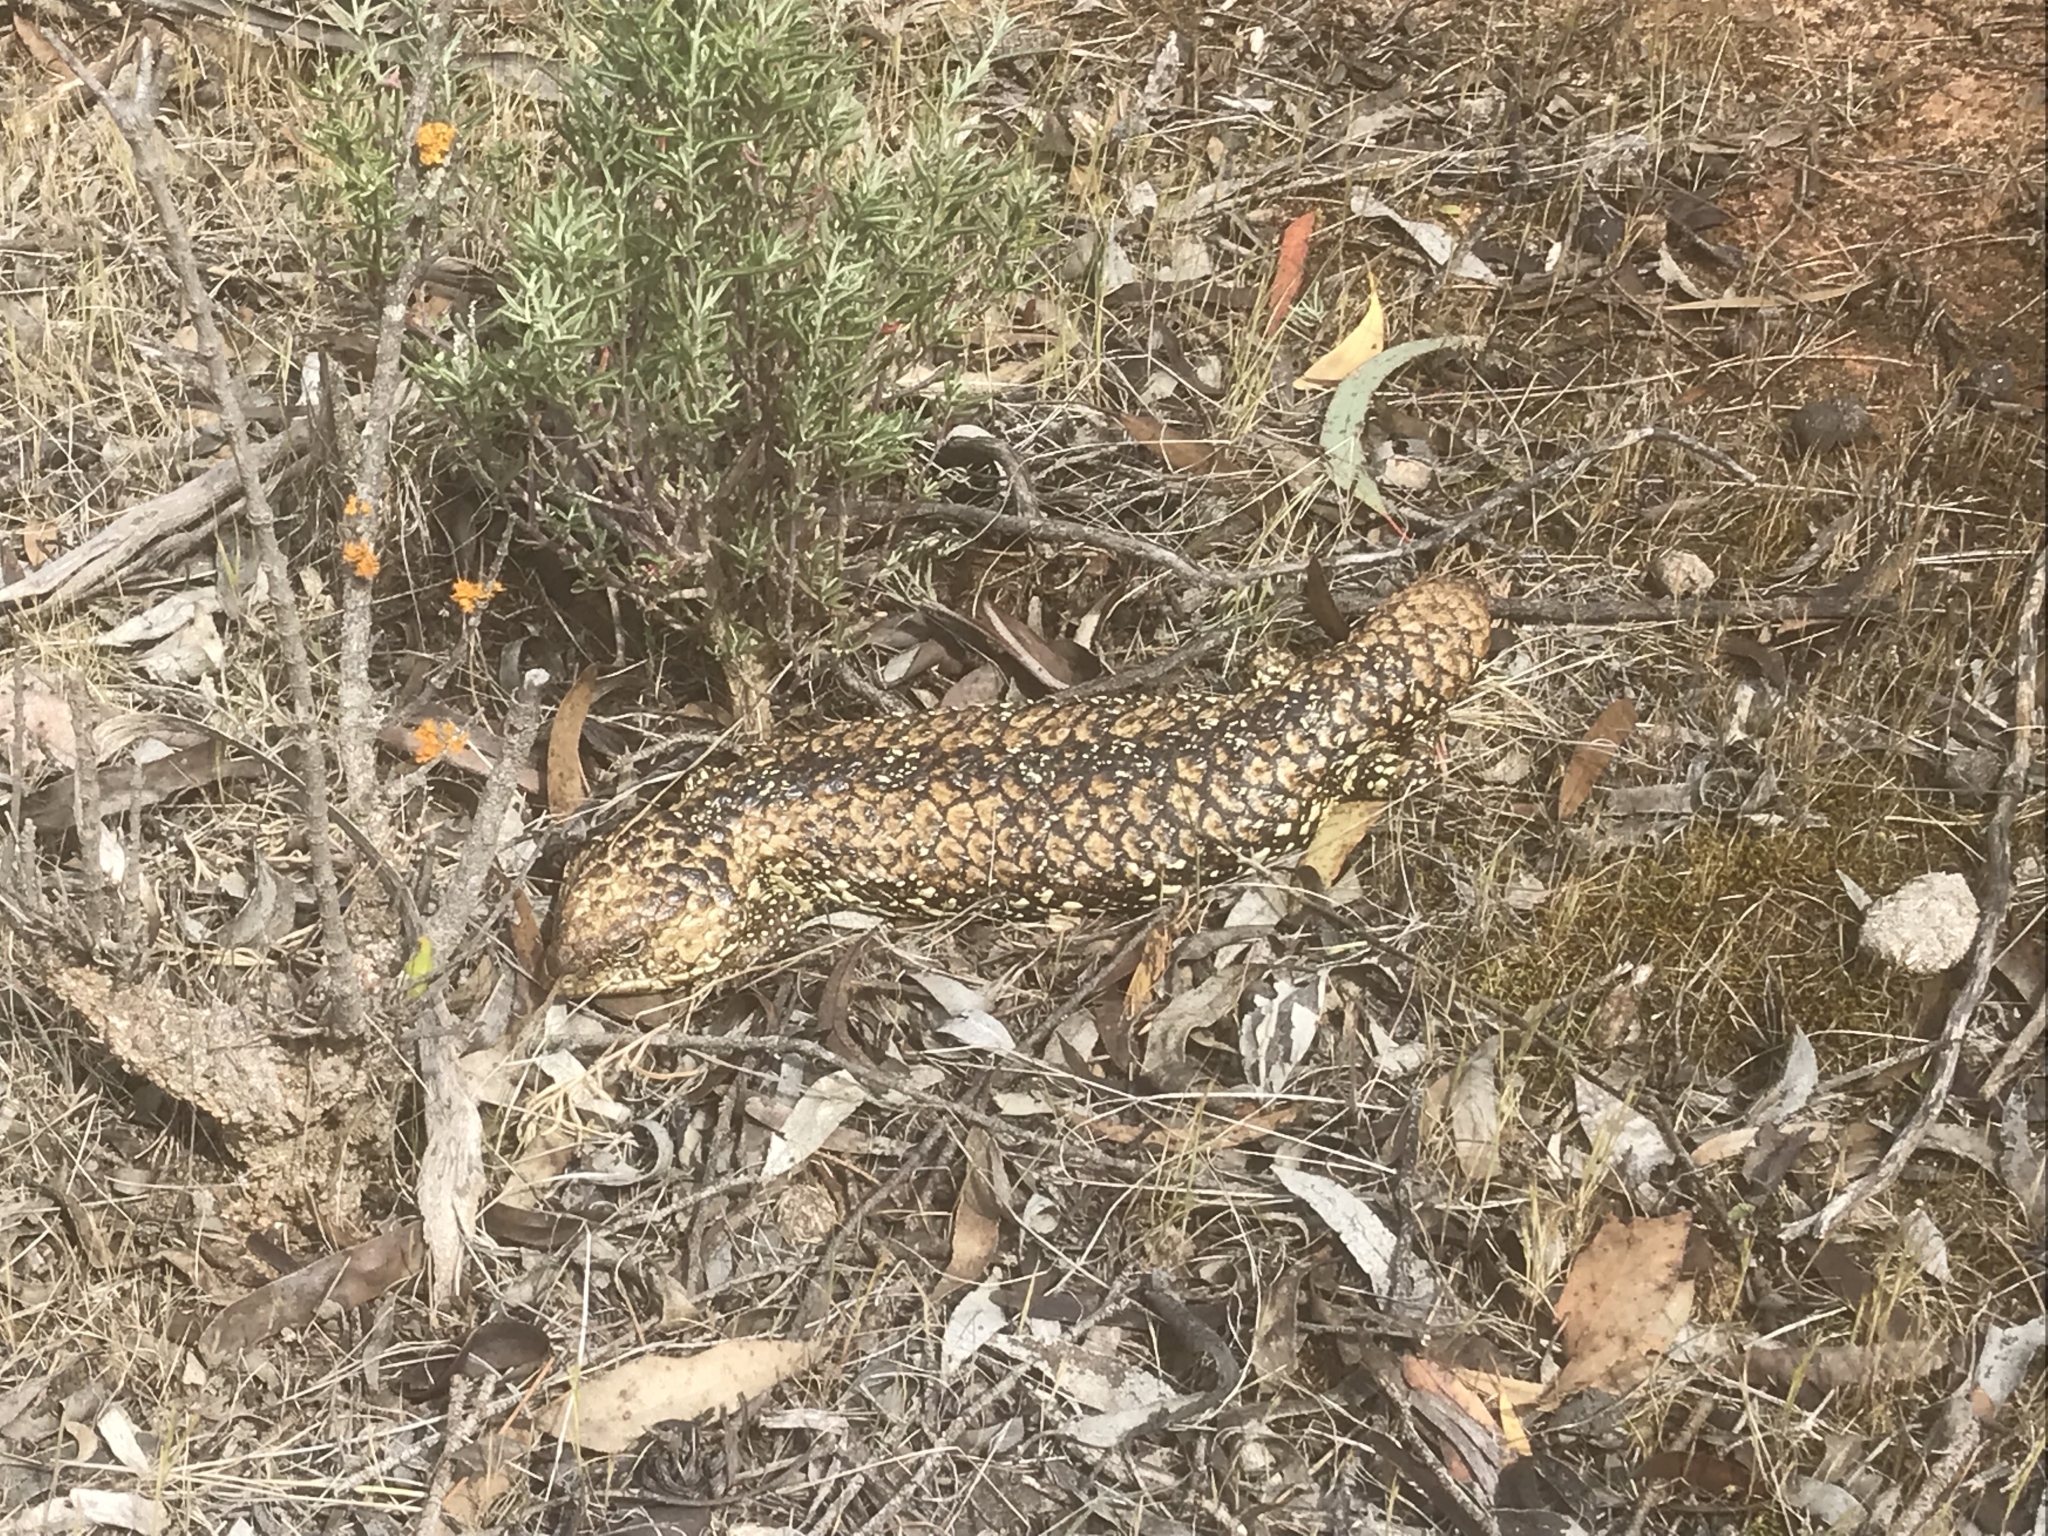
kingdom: Animalia
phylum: Chordata
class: Squamata
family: Scincidae
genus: Tiliqua
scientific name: Tiliqua rugosa
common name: Pinecone lizard
